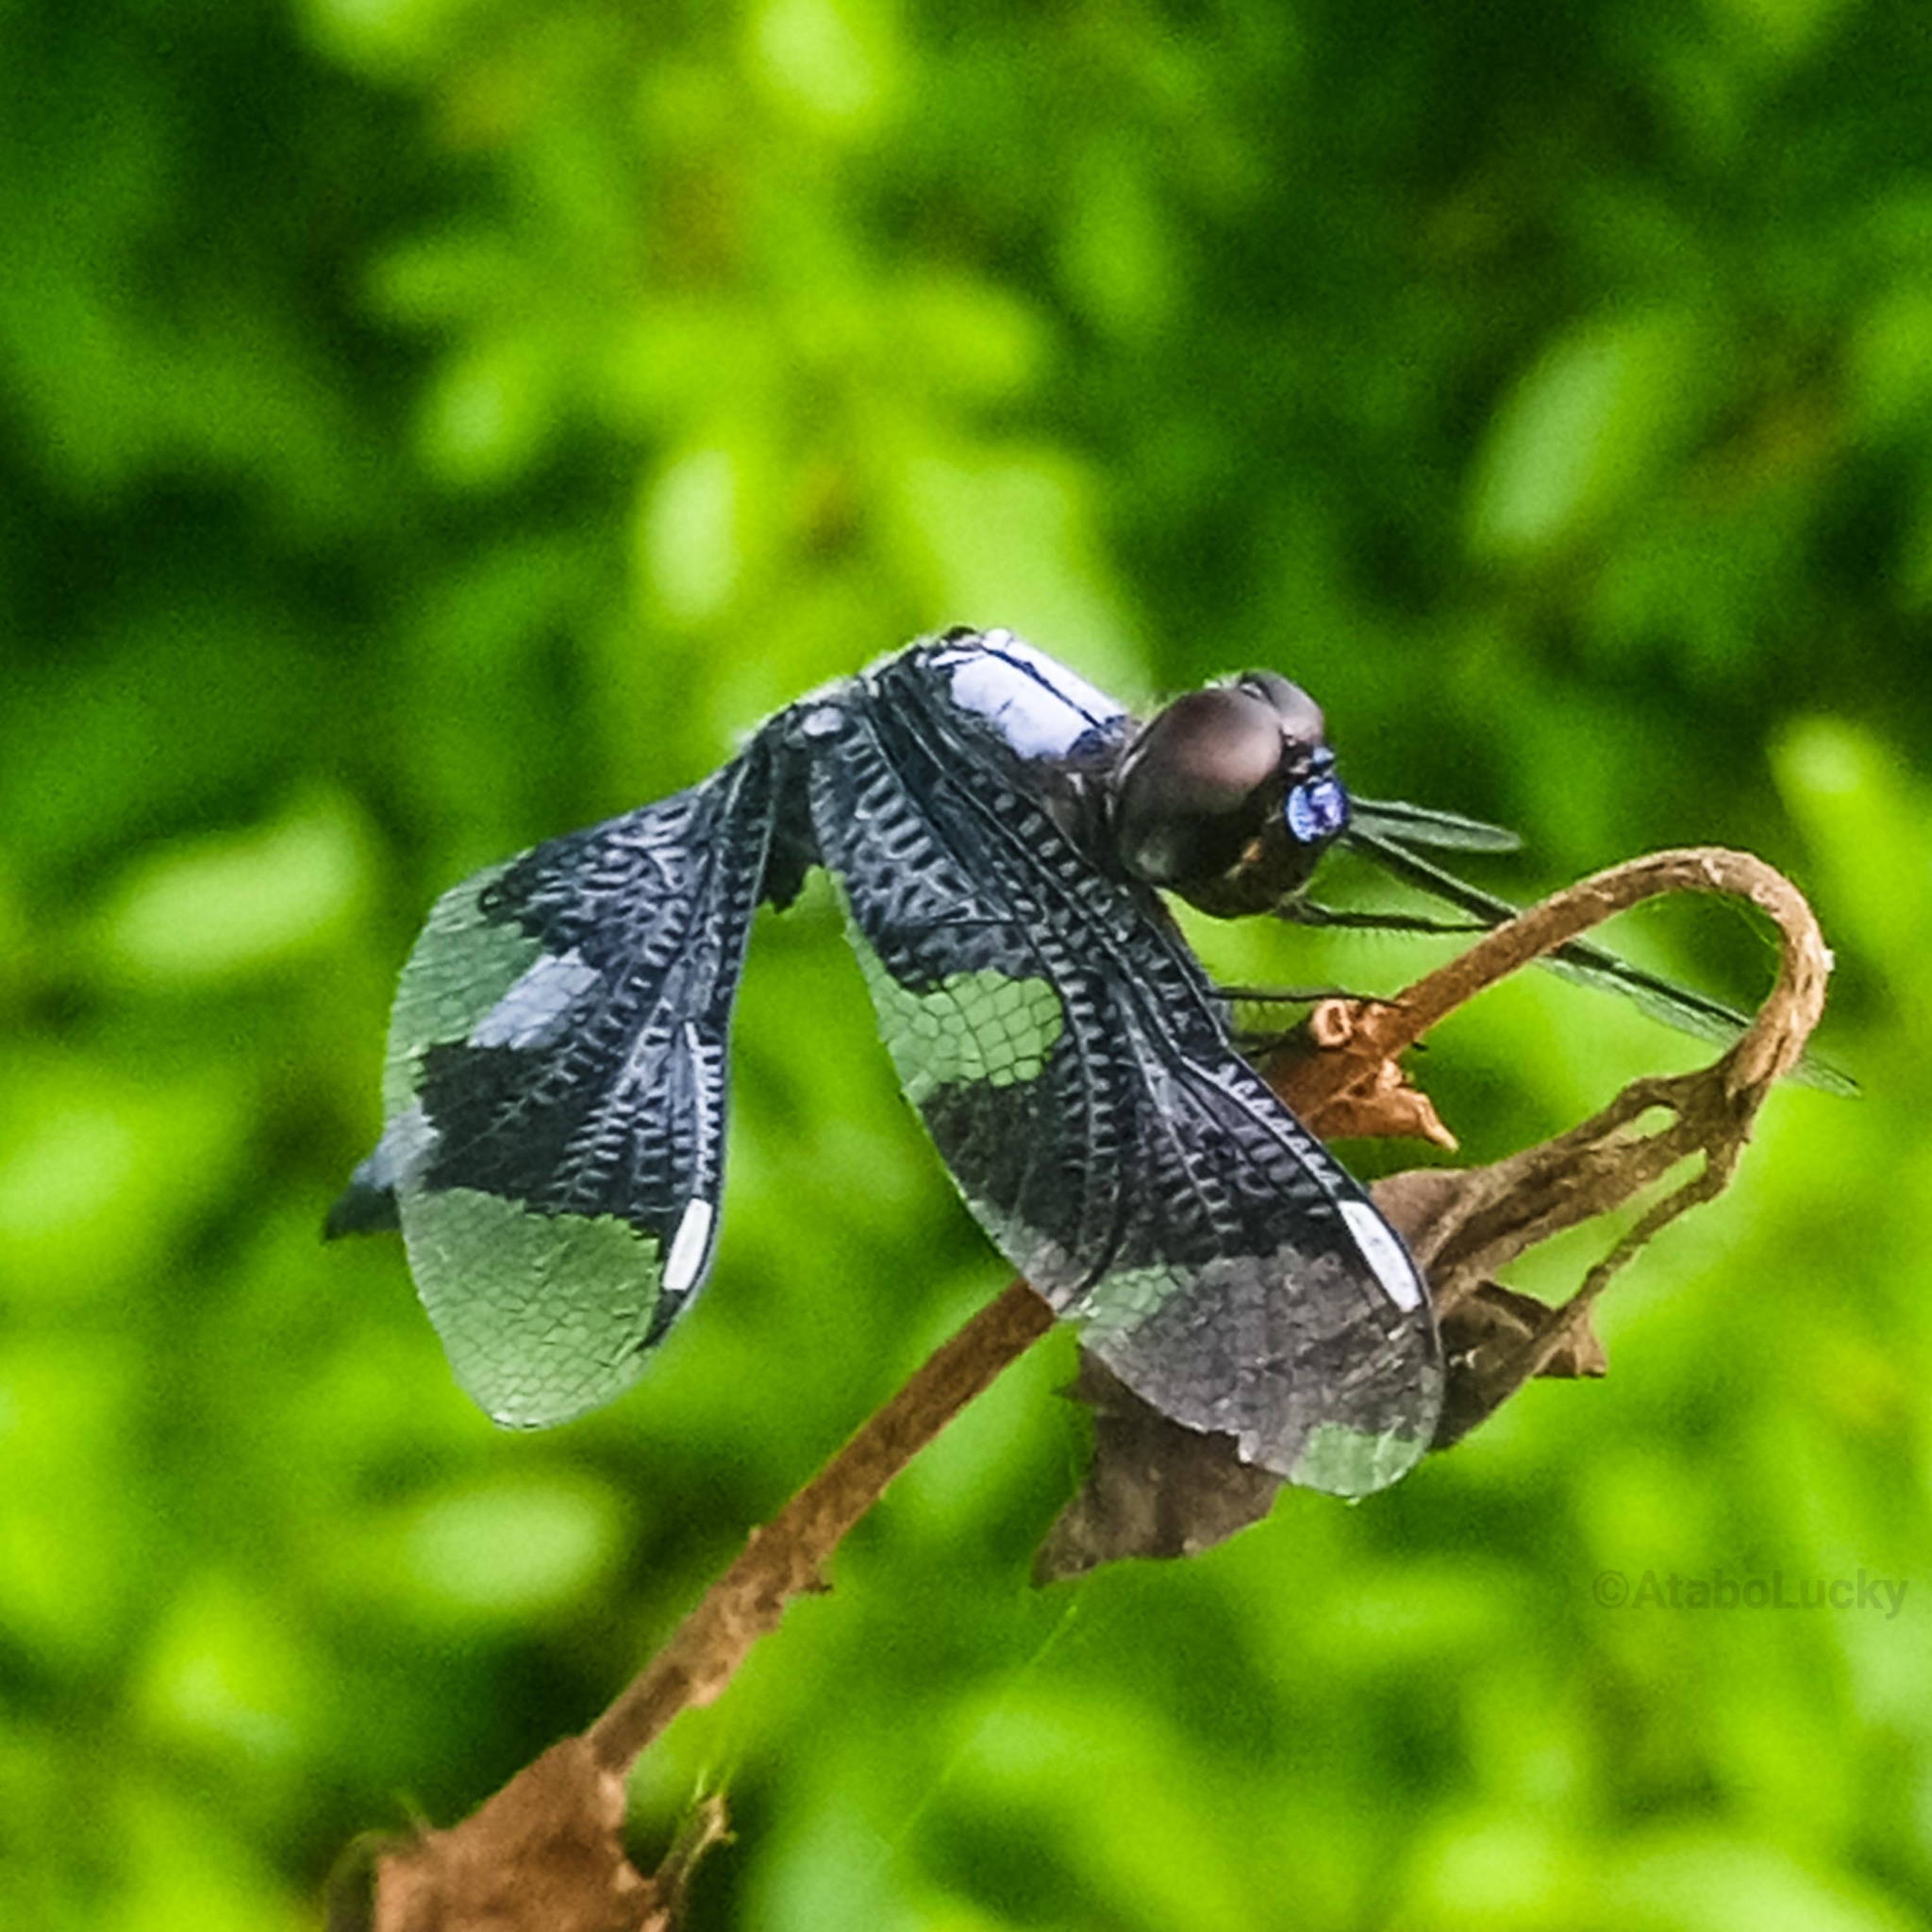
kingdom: Animalia
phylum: Arthropoda
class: Insecta
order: Odonata
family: Libellulidae
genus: Palpopleura
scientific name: Palpopleura portia
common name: Portia widow
